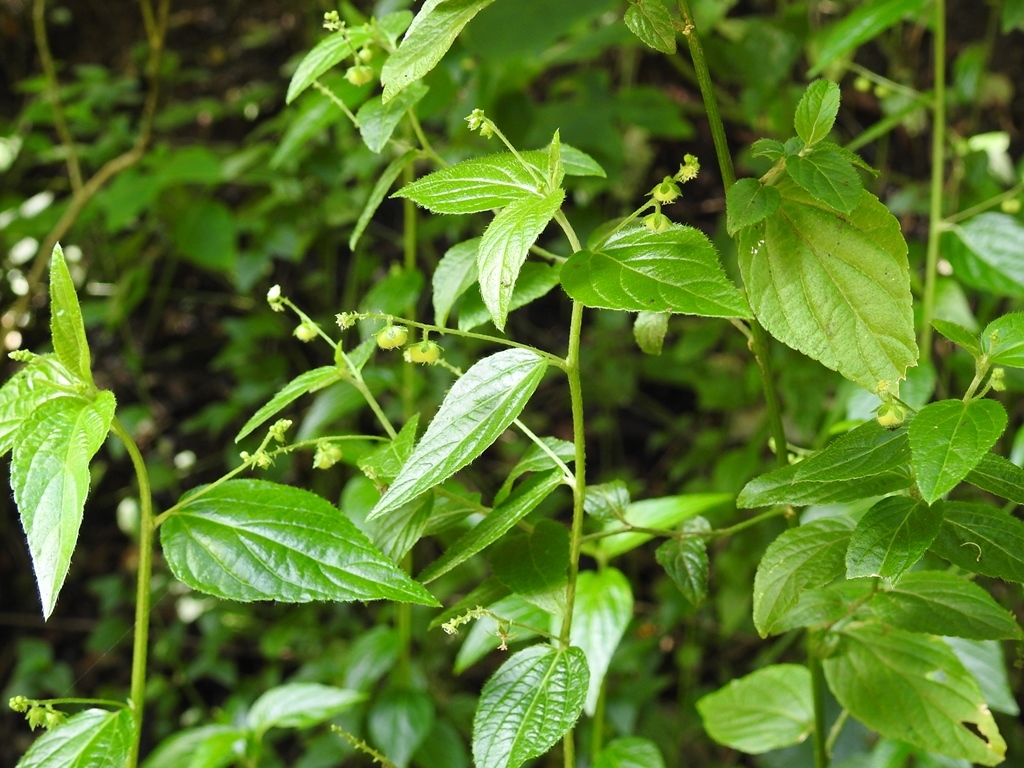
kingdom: Plantae
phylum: Tracheophyta
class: Magnoliopsida
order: Malpighiales
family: Euphorbiaceae
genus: Caperonia
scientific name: Caperonia palustris
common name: Sacatrapo
